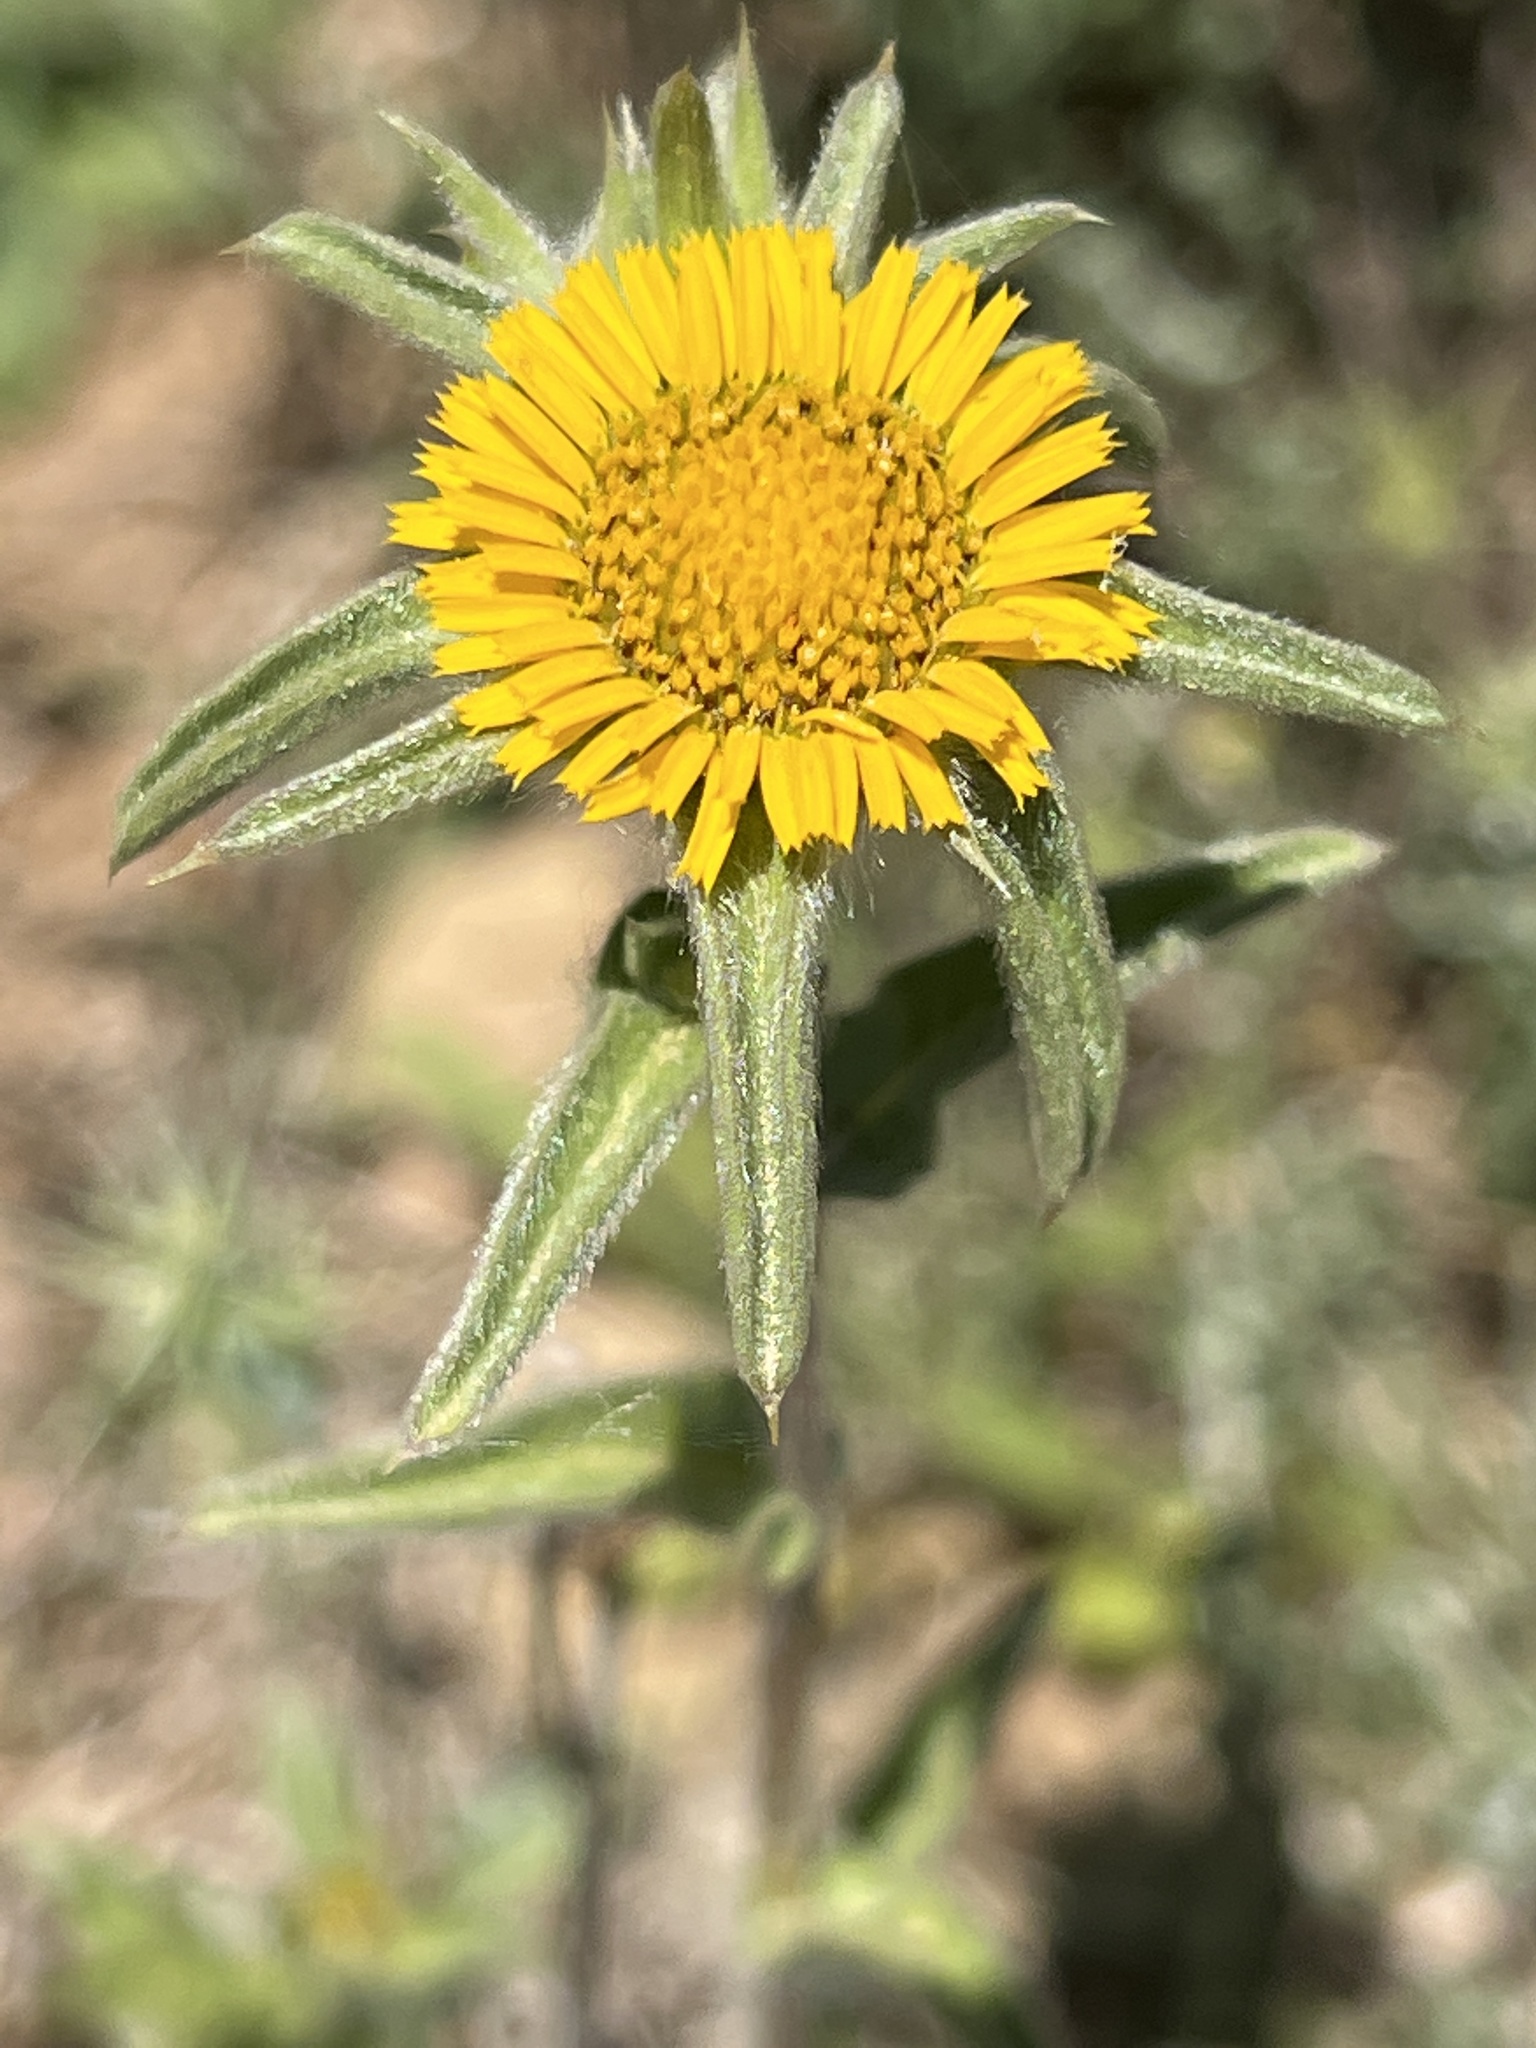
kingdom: Plantae
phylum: Tracheophyta
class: Magnoliopsida
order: Asterales
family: Asteraceae
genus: Pallenis
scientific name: Pallenis spinosa
